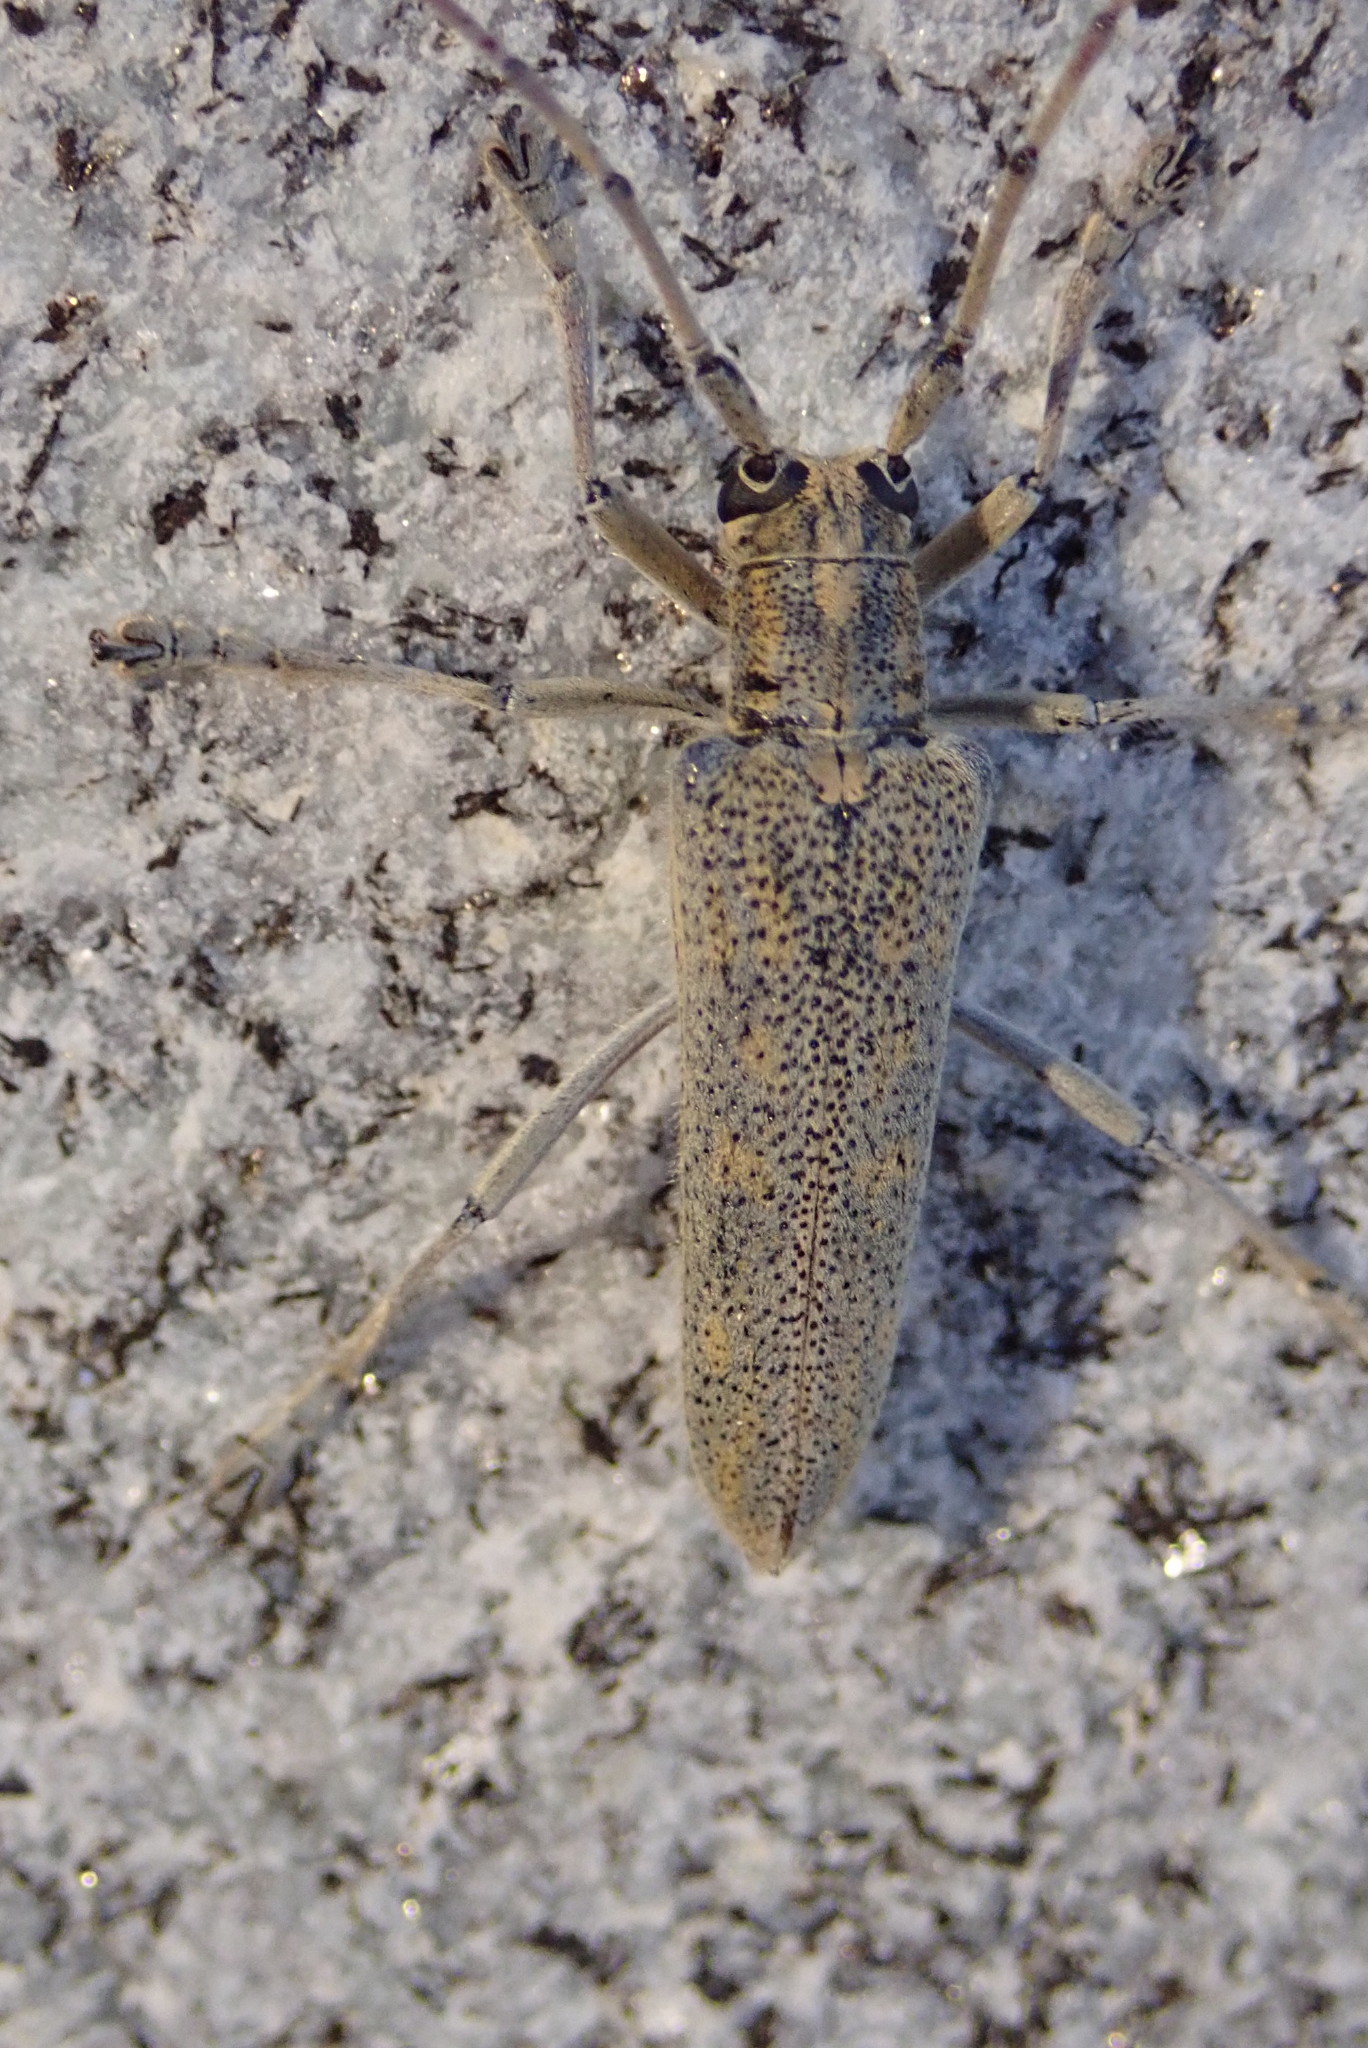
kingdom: Animalia
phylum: Arthropoda
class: Insecta
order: Coleoptera
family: Cerambycidae
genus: Saperda
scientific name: Saperda calcarata
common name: Poplar borer
